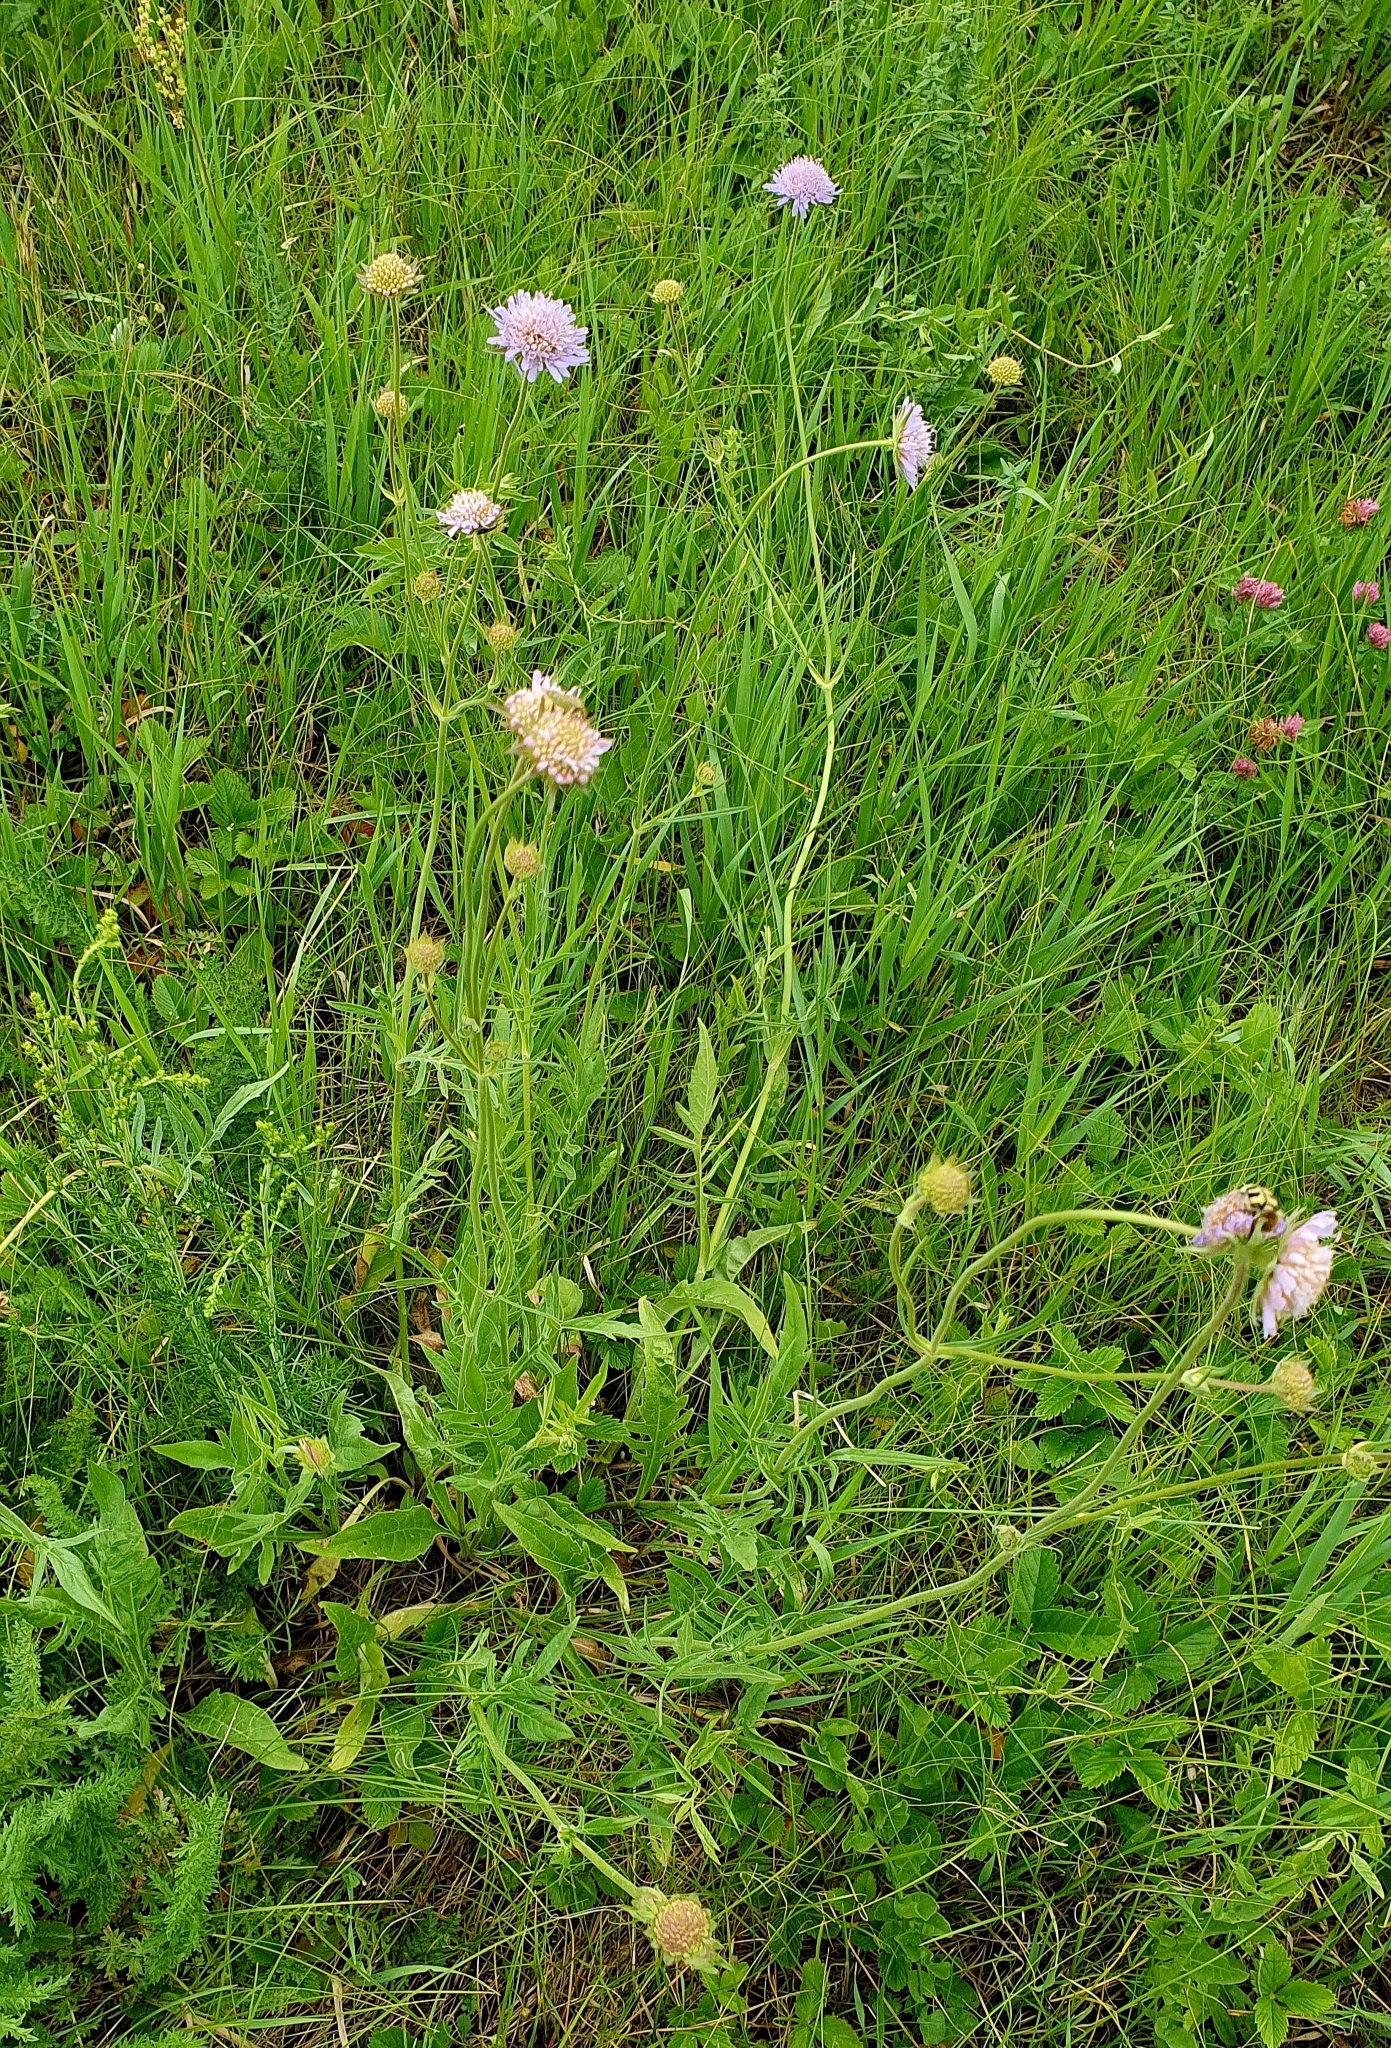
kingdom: Plantae
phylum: Tracheophyta
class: Magnoliopsida
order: Dipsacales
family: Caprifoliaceae
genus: Knautia
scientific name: Knautia arvensis
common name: Field scabiosa
